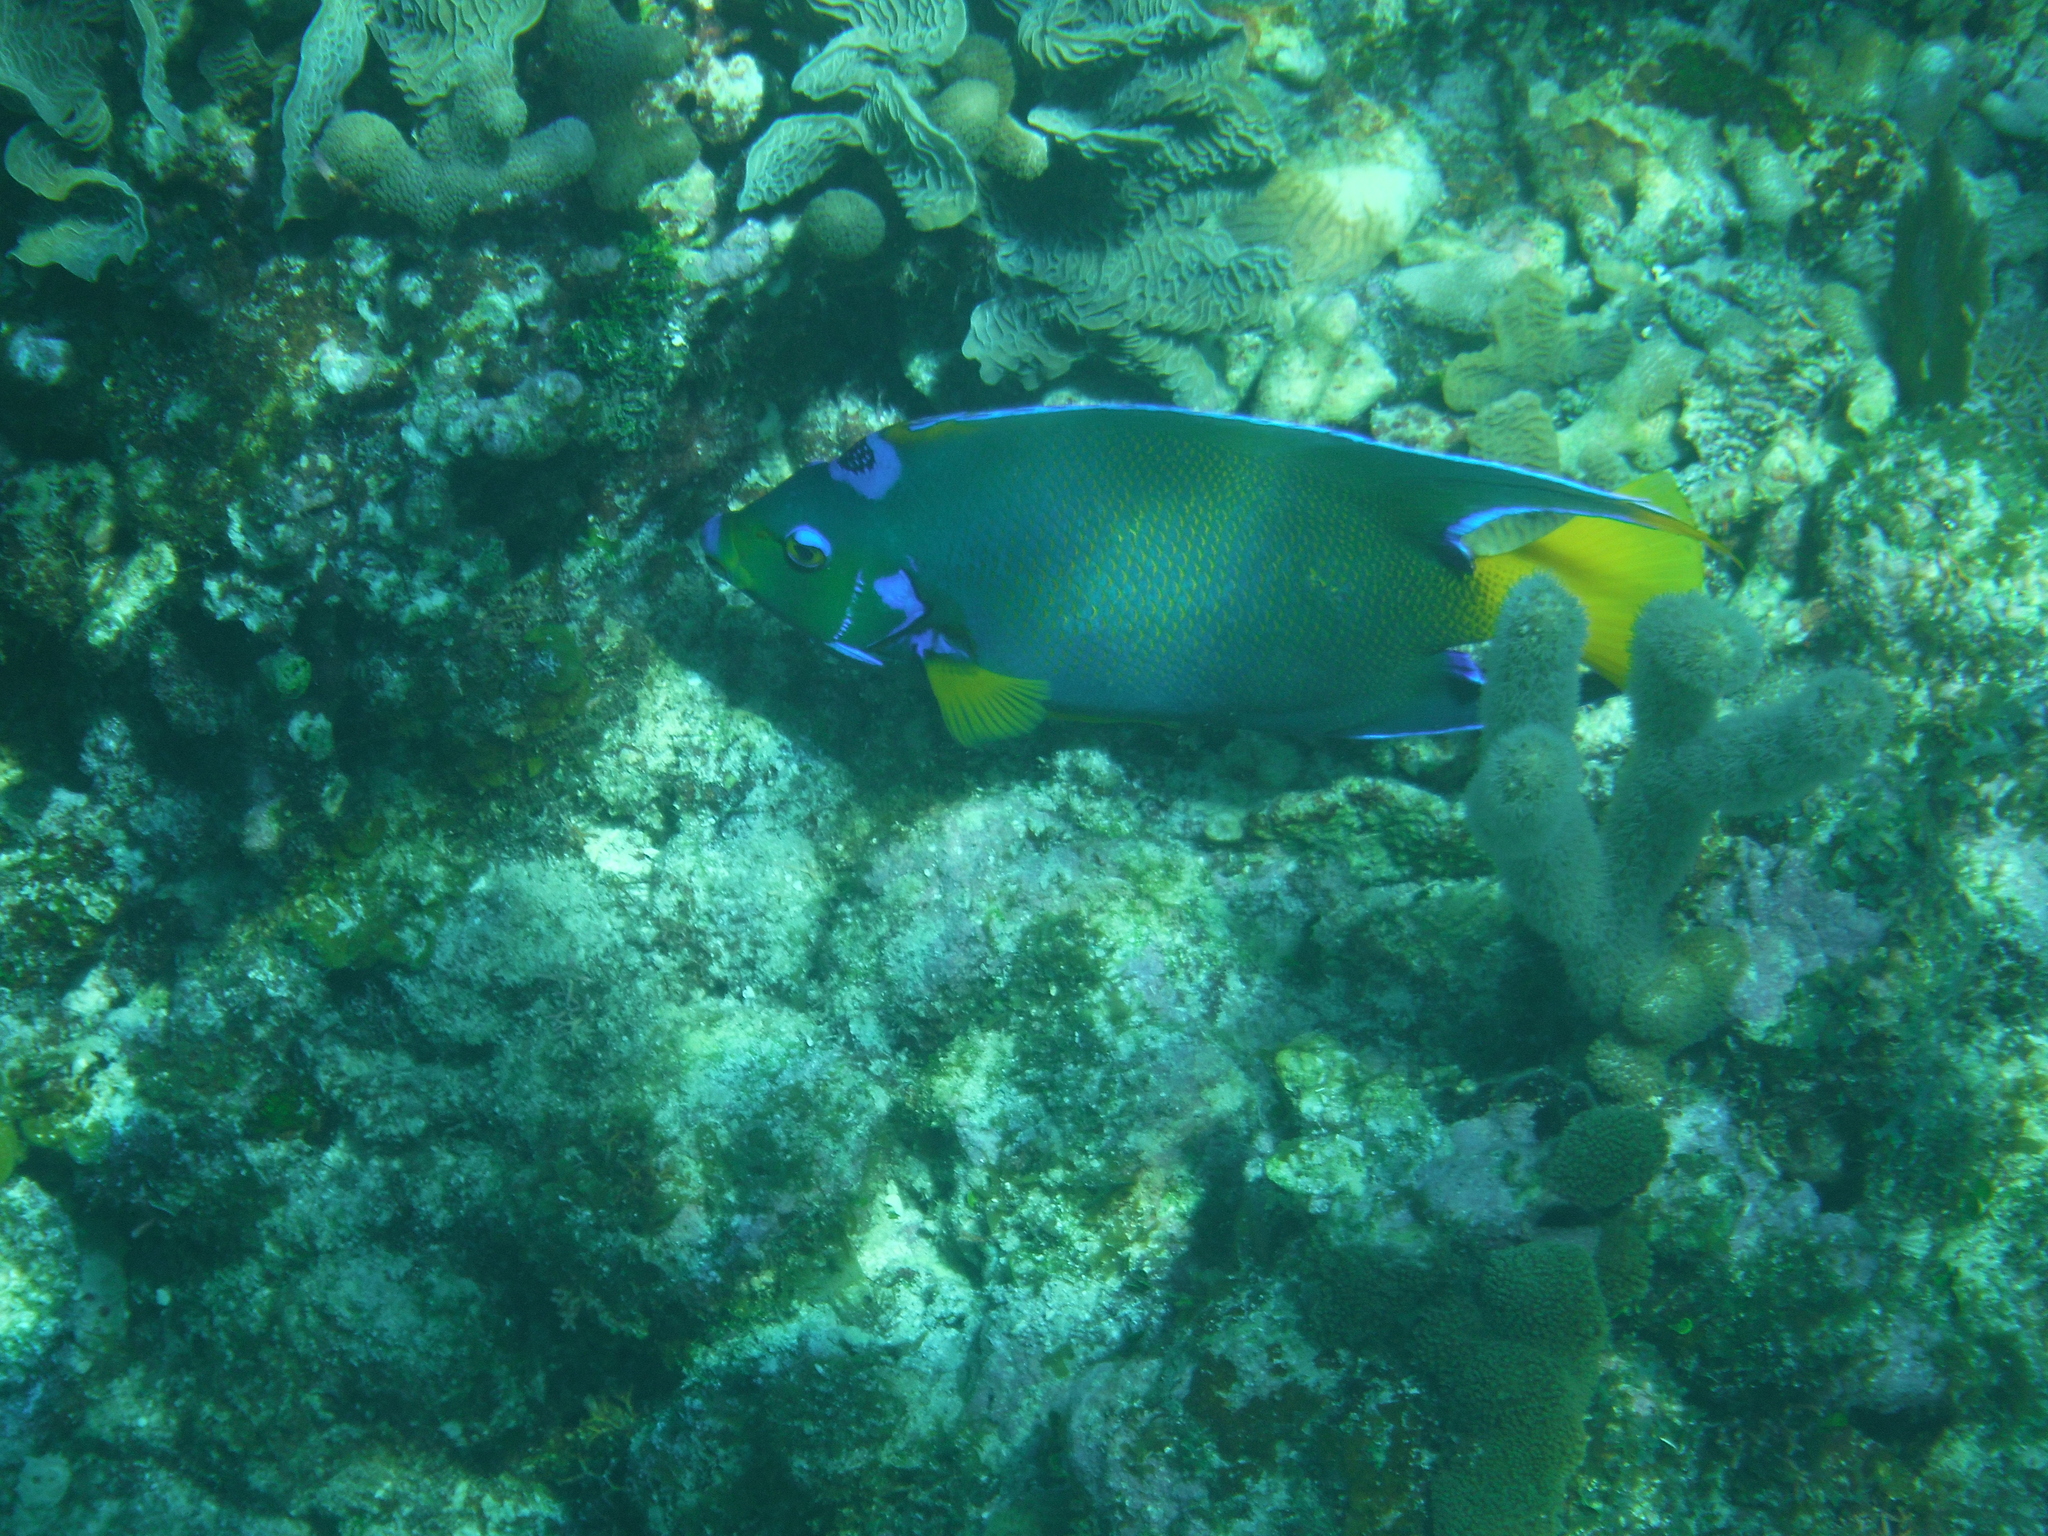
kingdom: Animalia
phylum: Chordata
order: Perciformes
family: Pomacanthidae
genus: Holacanthus
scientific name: Holacanthus ciliaris
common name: Queen angelfish
